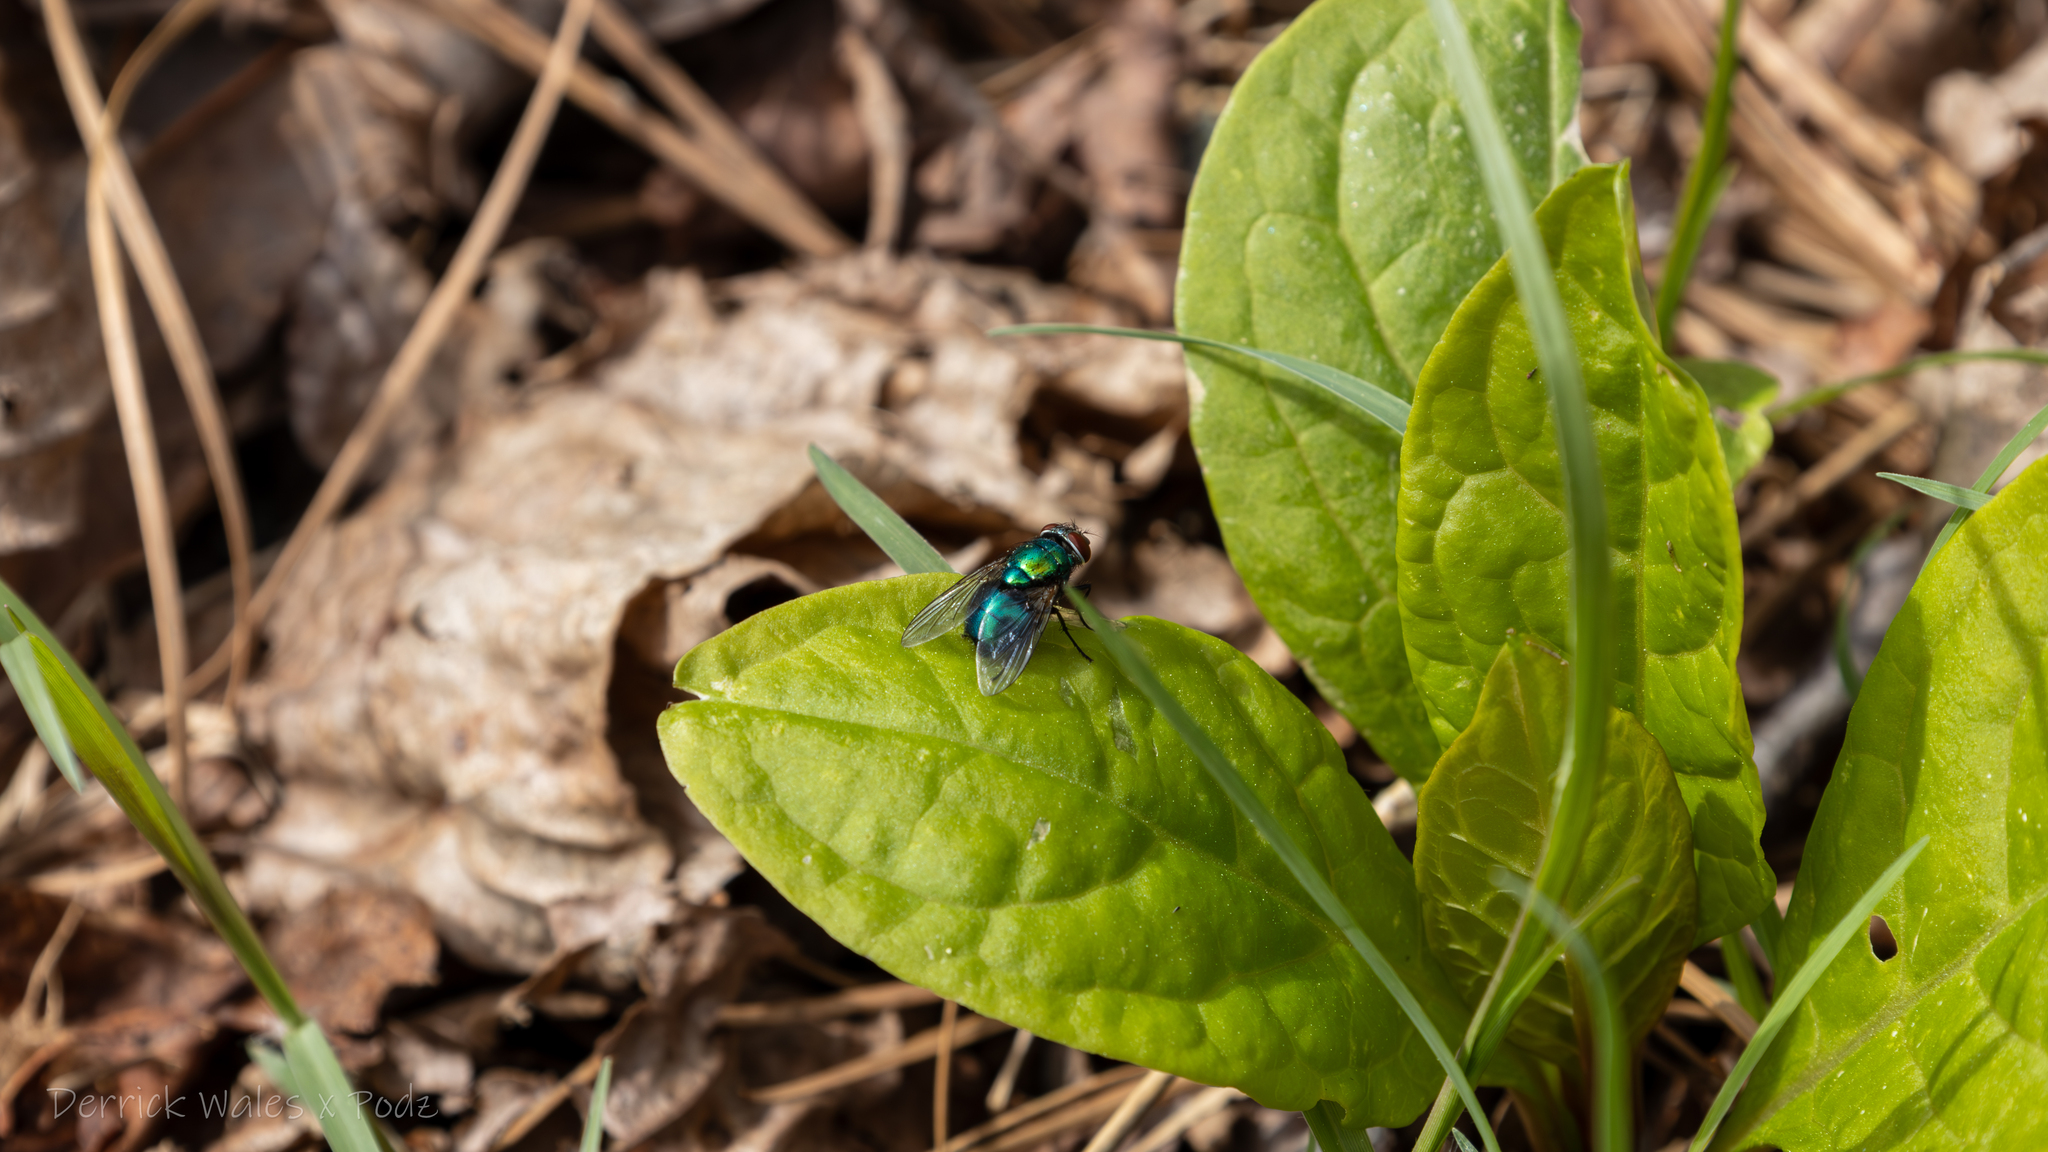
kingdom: Plantae
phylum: Tracheophyta
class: Magnoliopsida
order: Caryophyllales
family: Phytolaccaceae
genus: Phytolacca
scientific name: Phytolacca americana
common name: American pokeweed
